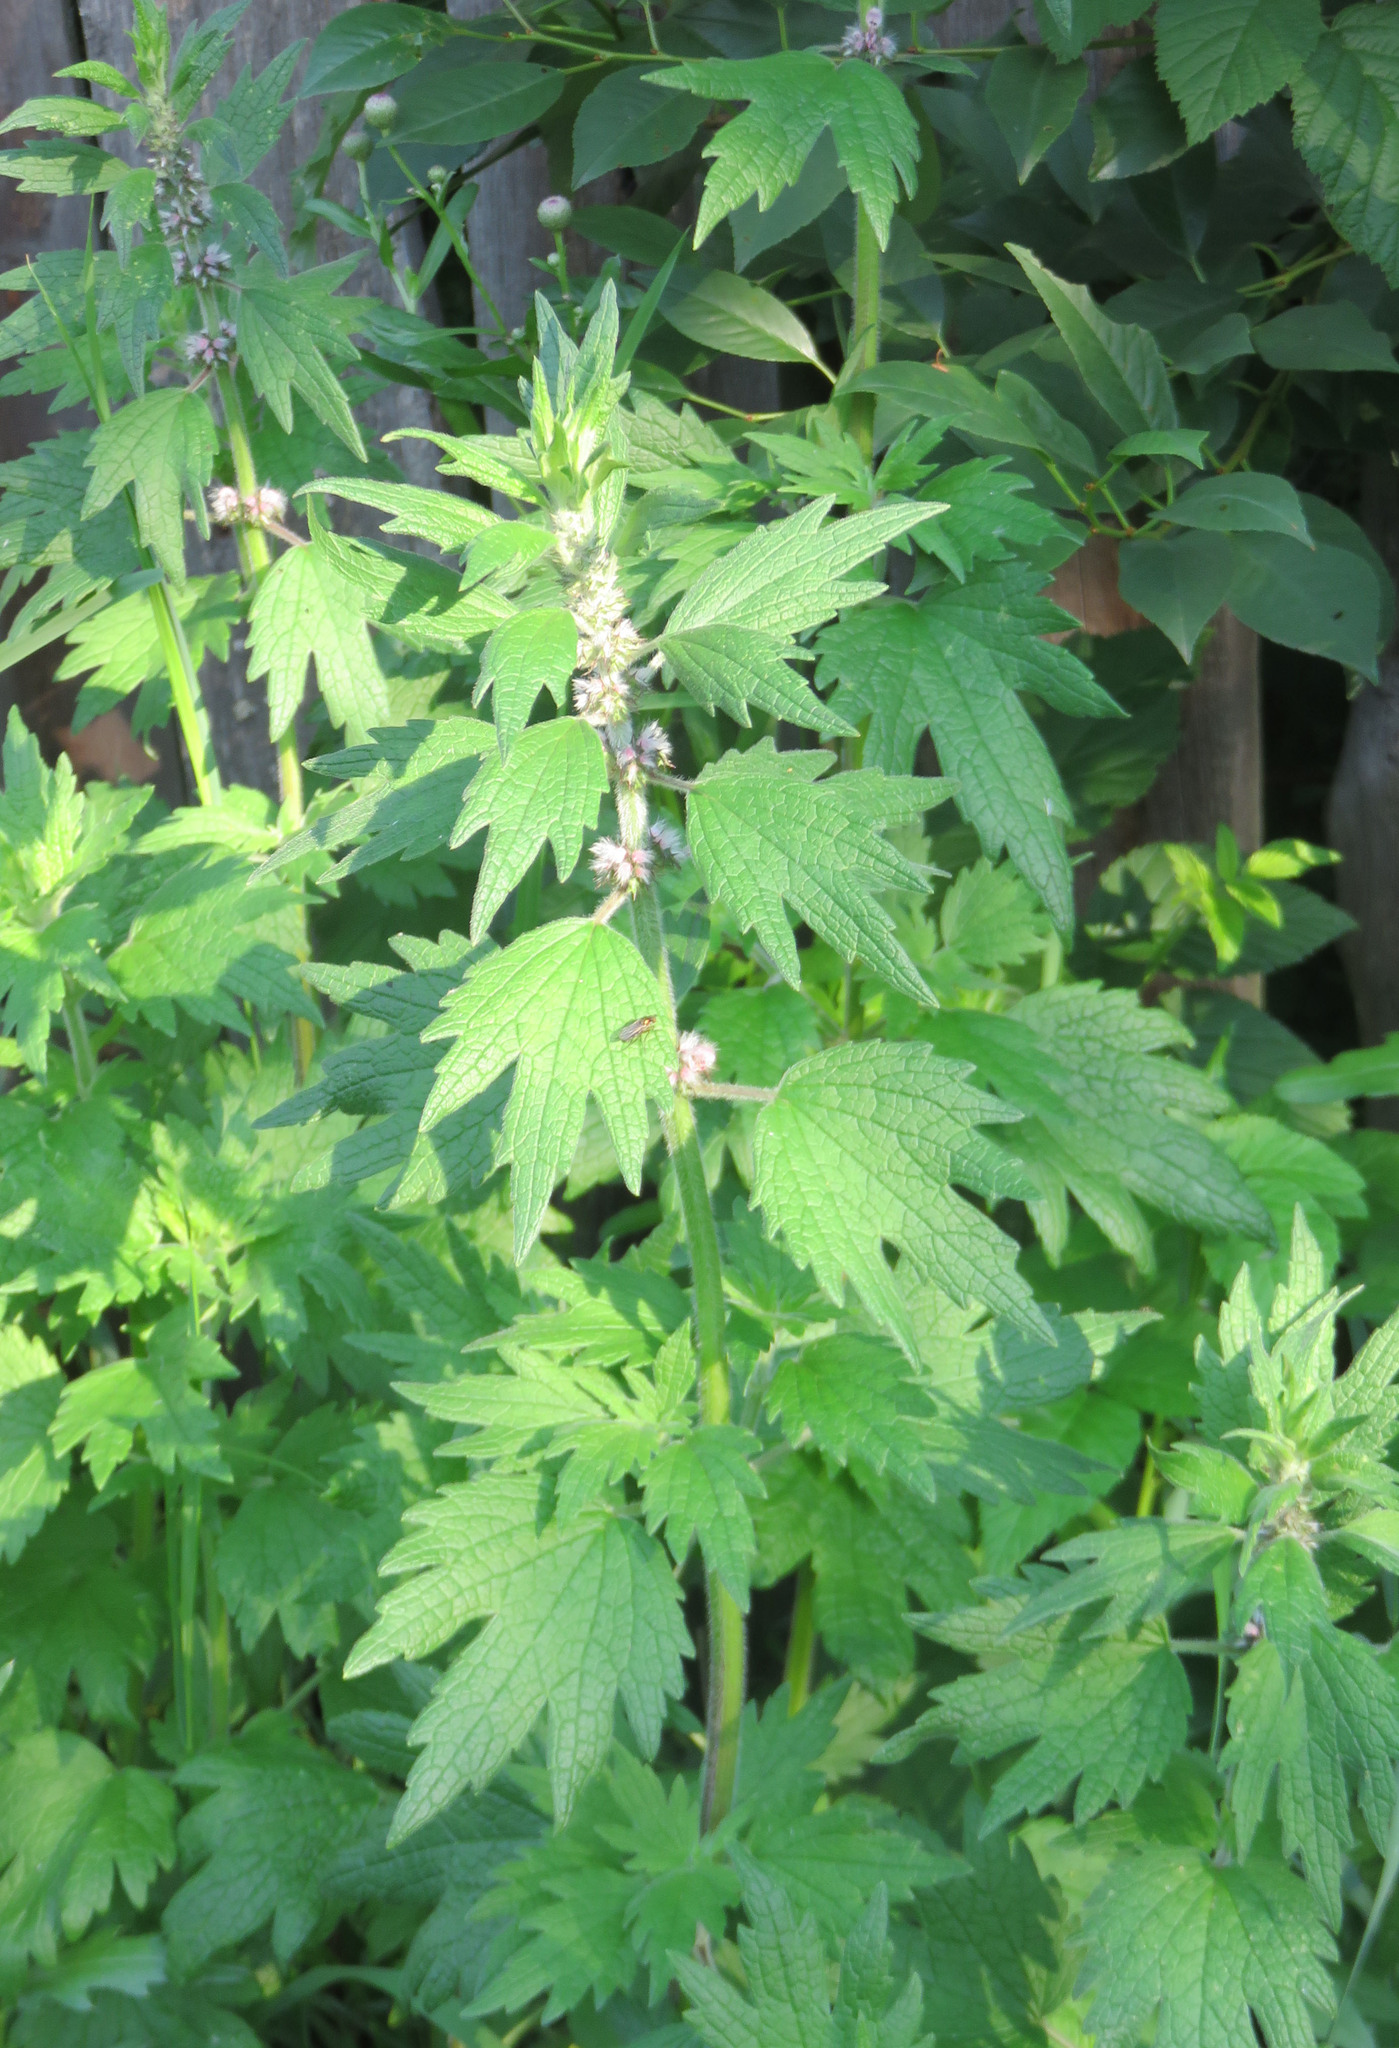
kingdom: Plantae
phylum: Tracheophyta
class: Magnoliopsida
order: Lamiales
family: Lamiaceae
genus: Leonurus
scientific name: Leonurus quinquelobatus
